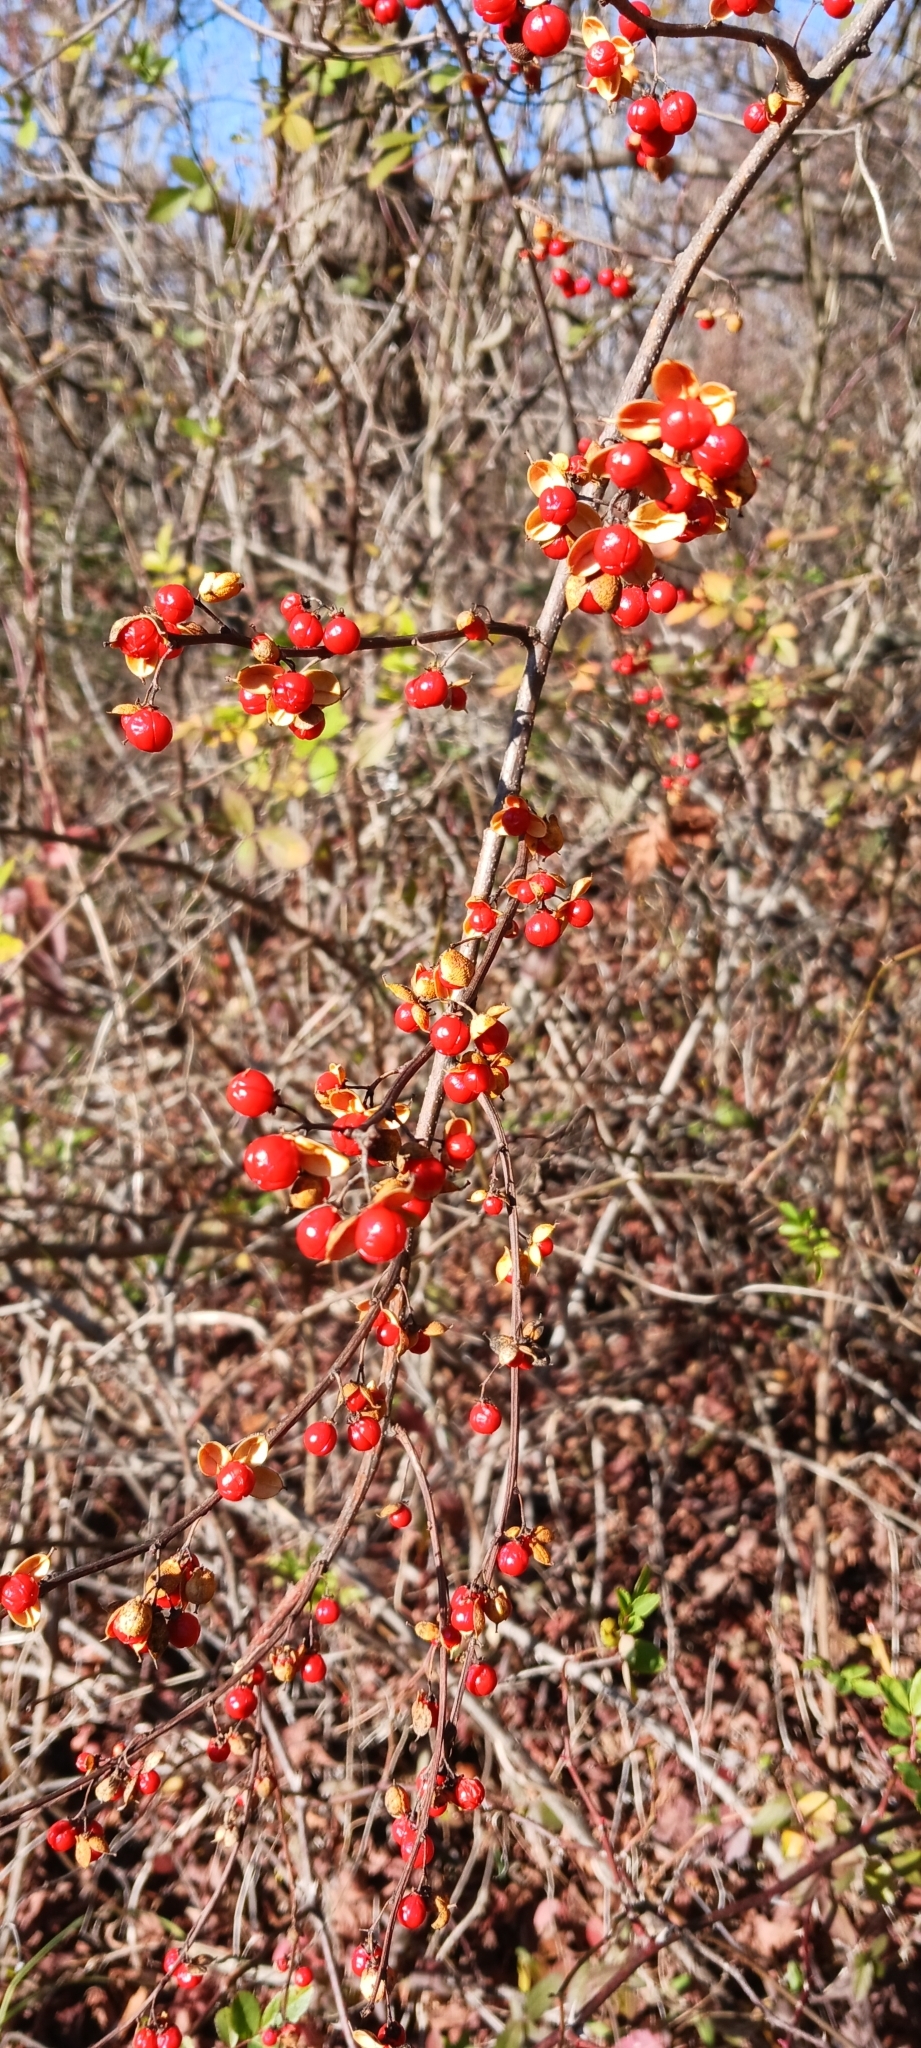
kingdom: Plantae
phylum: Tracheophyta
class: Magnoliopsida
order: Celastrales
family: Celastraceae
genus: Celastrus
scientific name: Celastrus orbiculatus
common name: Oriental bittersweet
